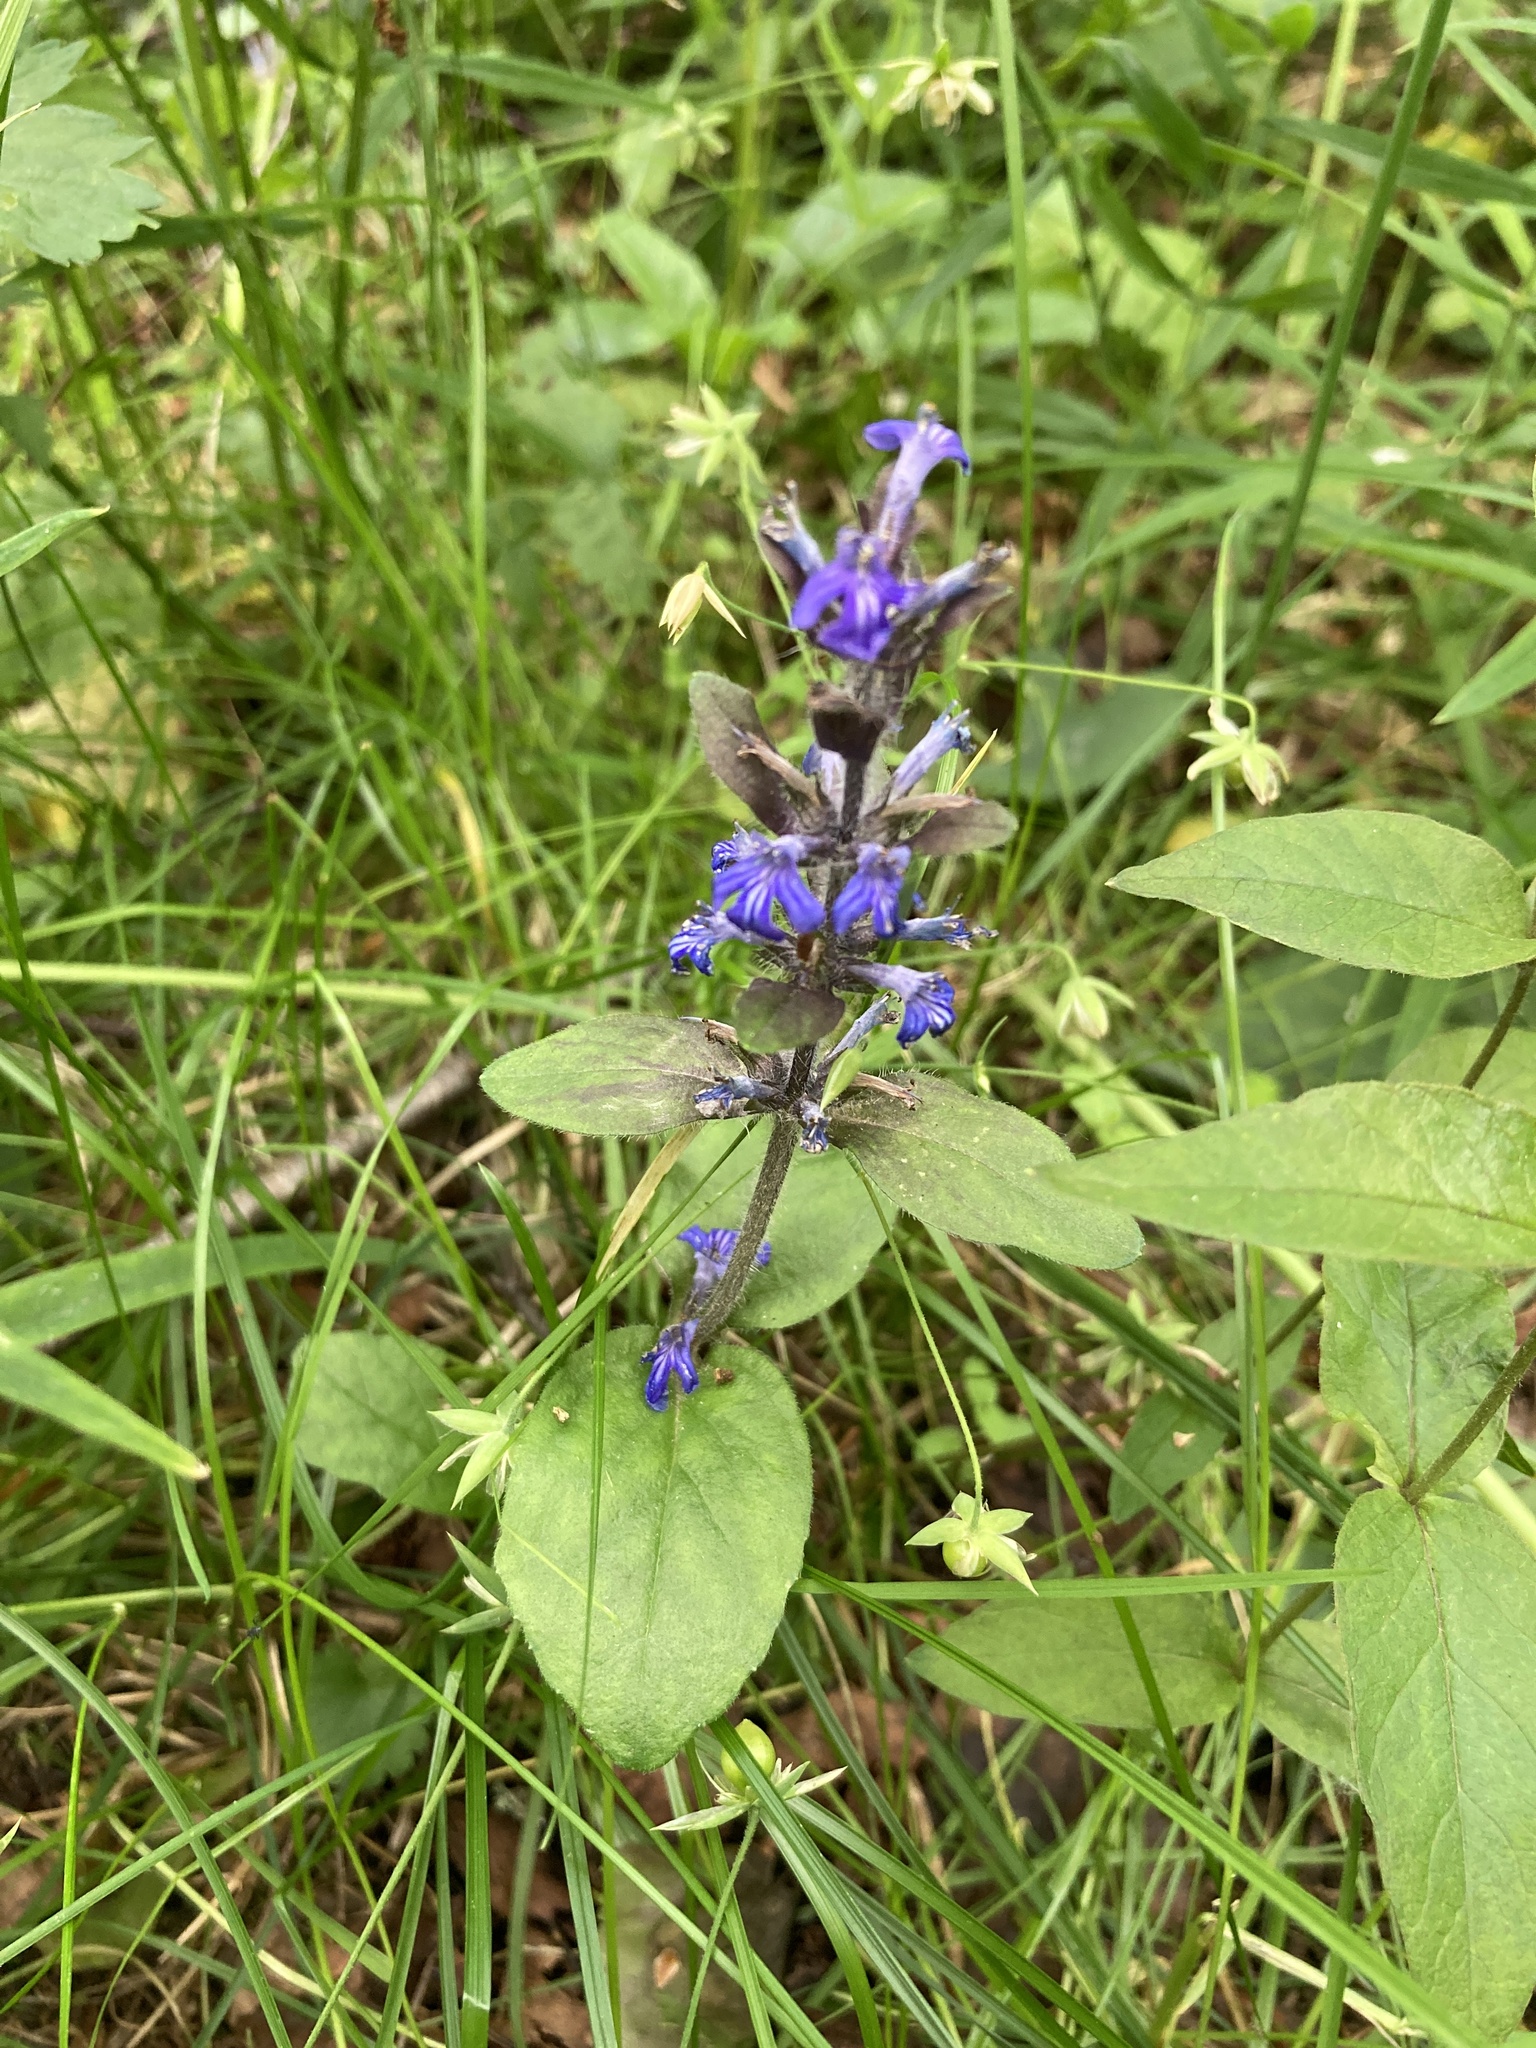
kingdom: Plantae
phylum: Tracheophyta
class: Magnoliopsida
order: Lamiales
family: Lamiaceae
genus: Ajuga
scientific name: Ajuga reptans
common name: Bugle
